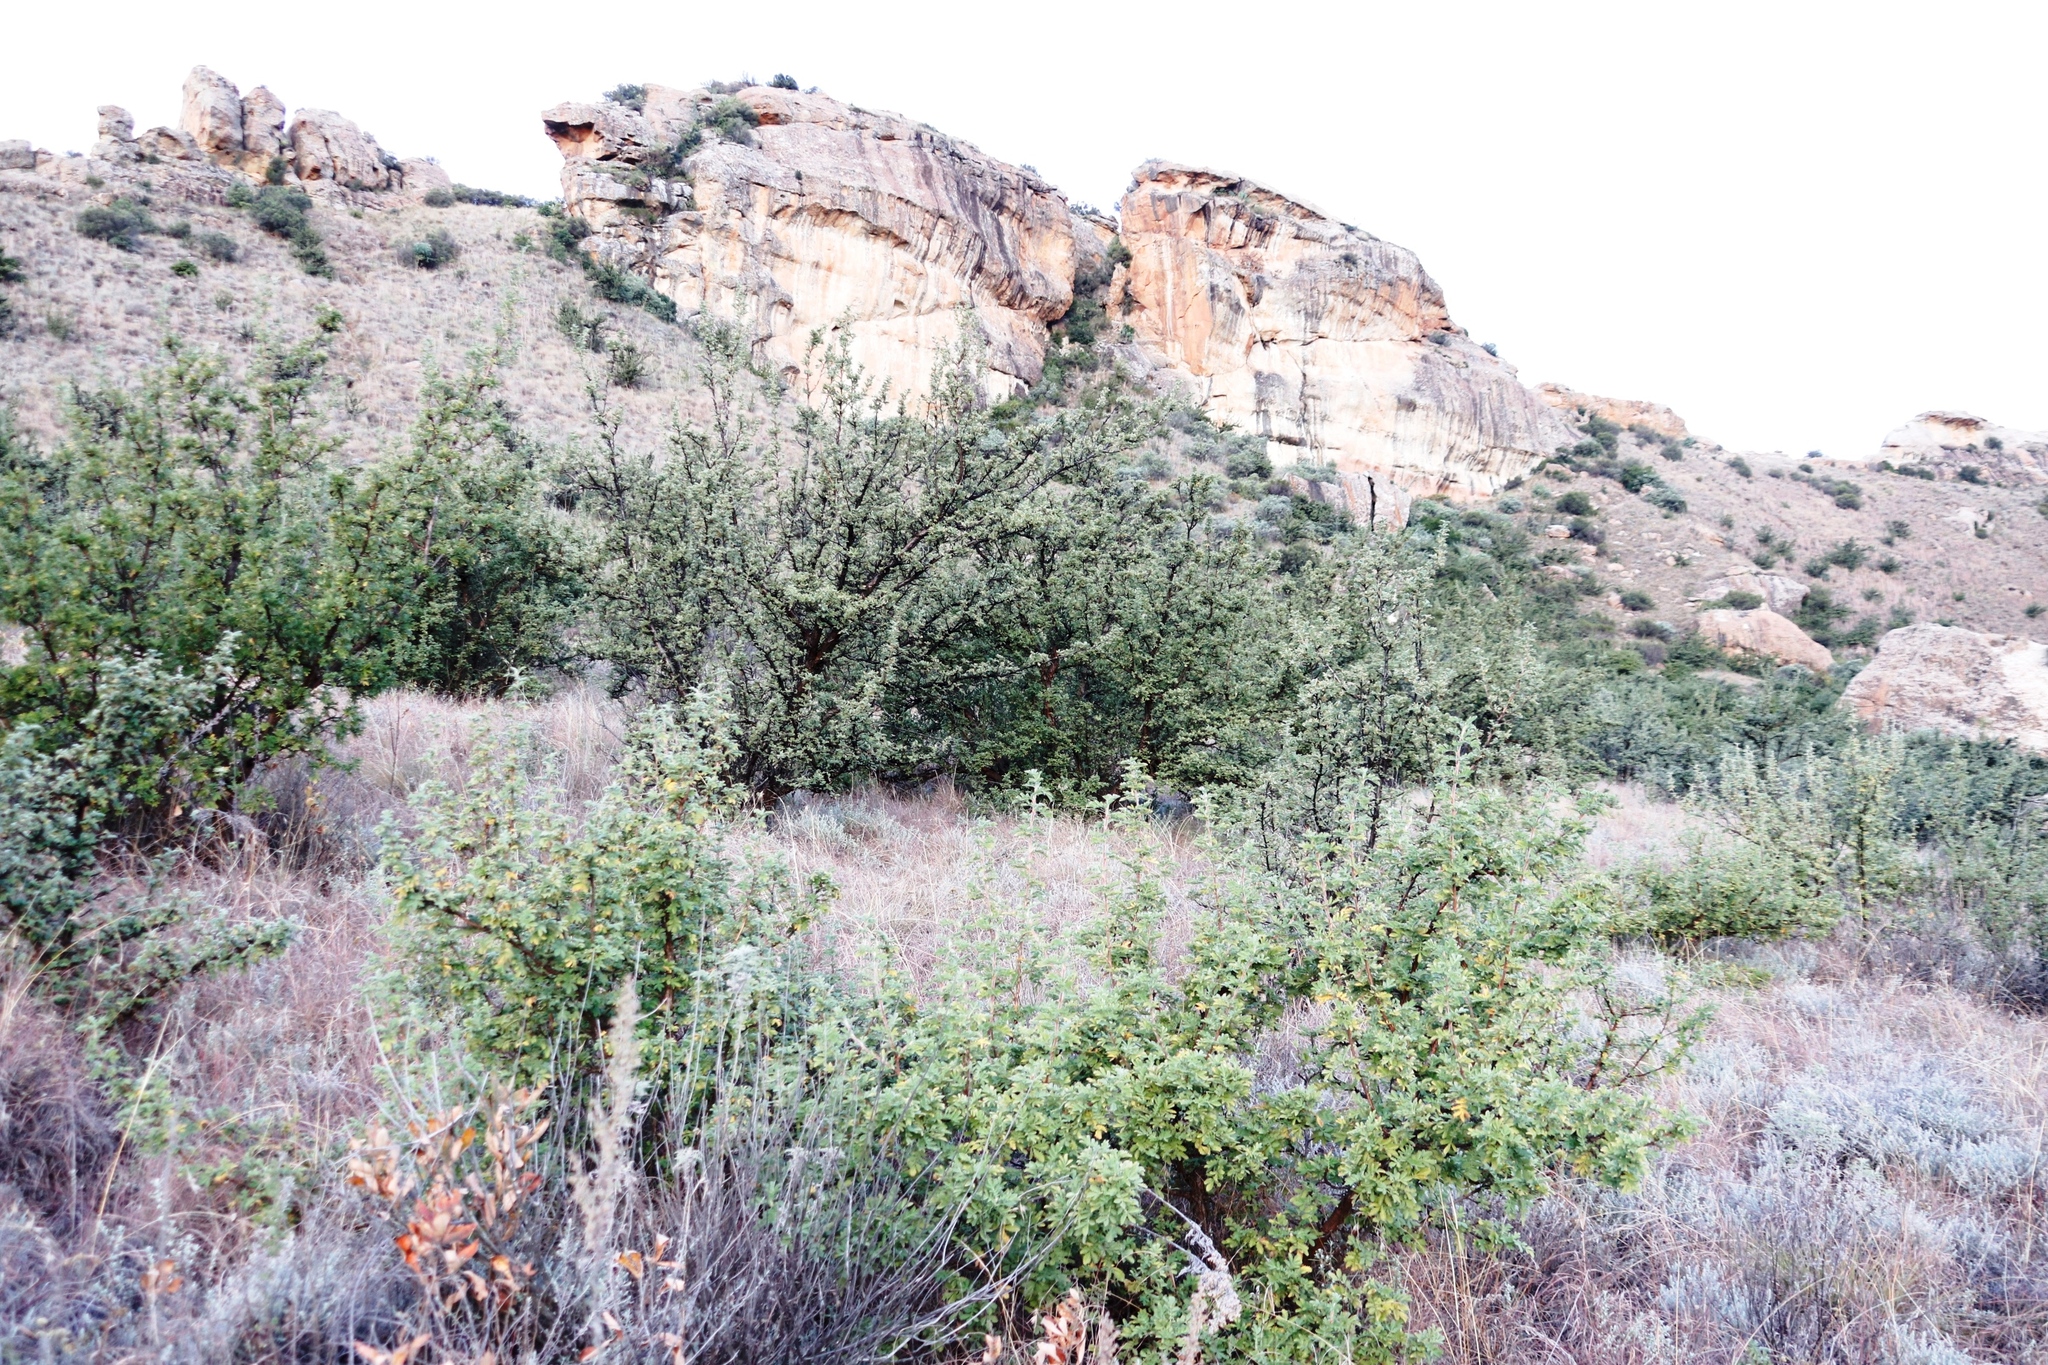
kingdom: Plantae
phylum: Tracheophyta
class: Magnoliopsida
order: Rosales
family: Rosaceae
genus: Leucosidea
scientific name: Leucosidea sericea
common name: Oldwood
